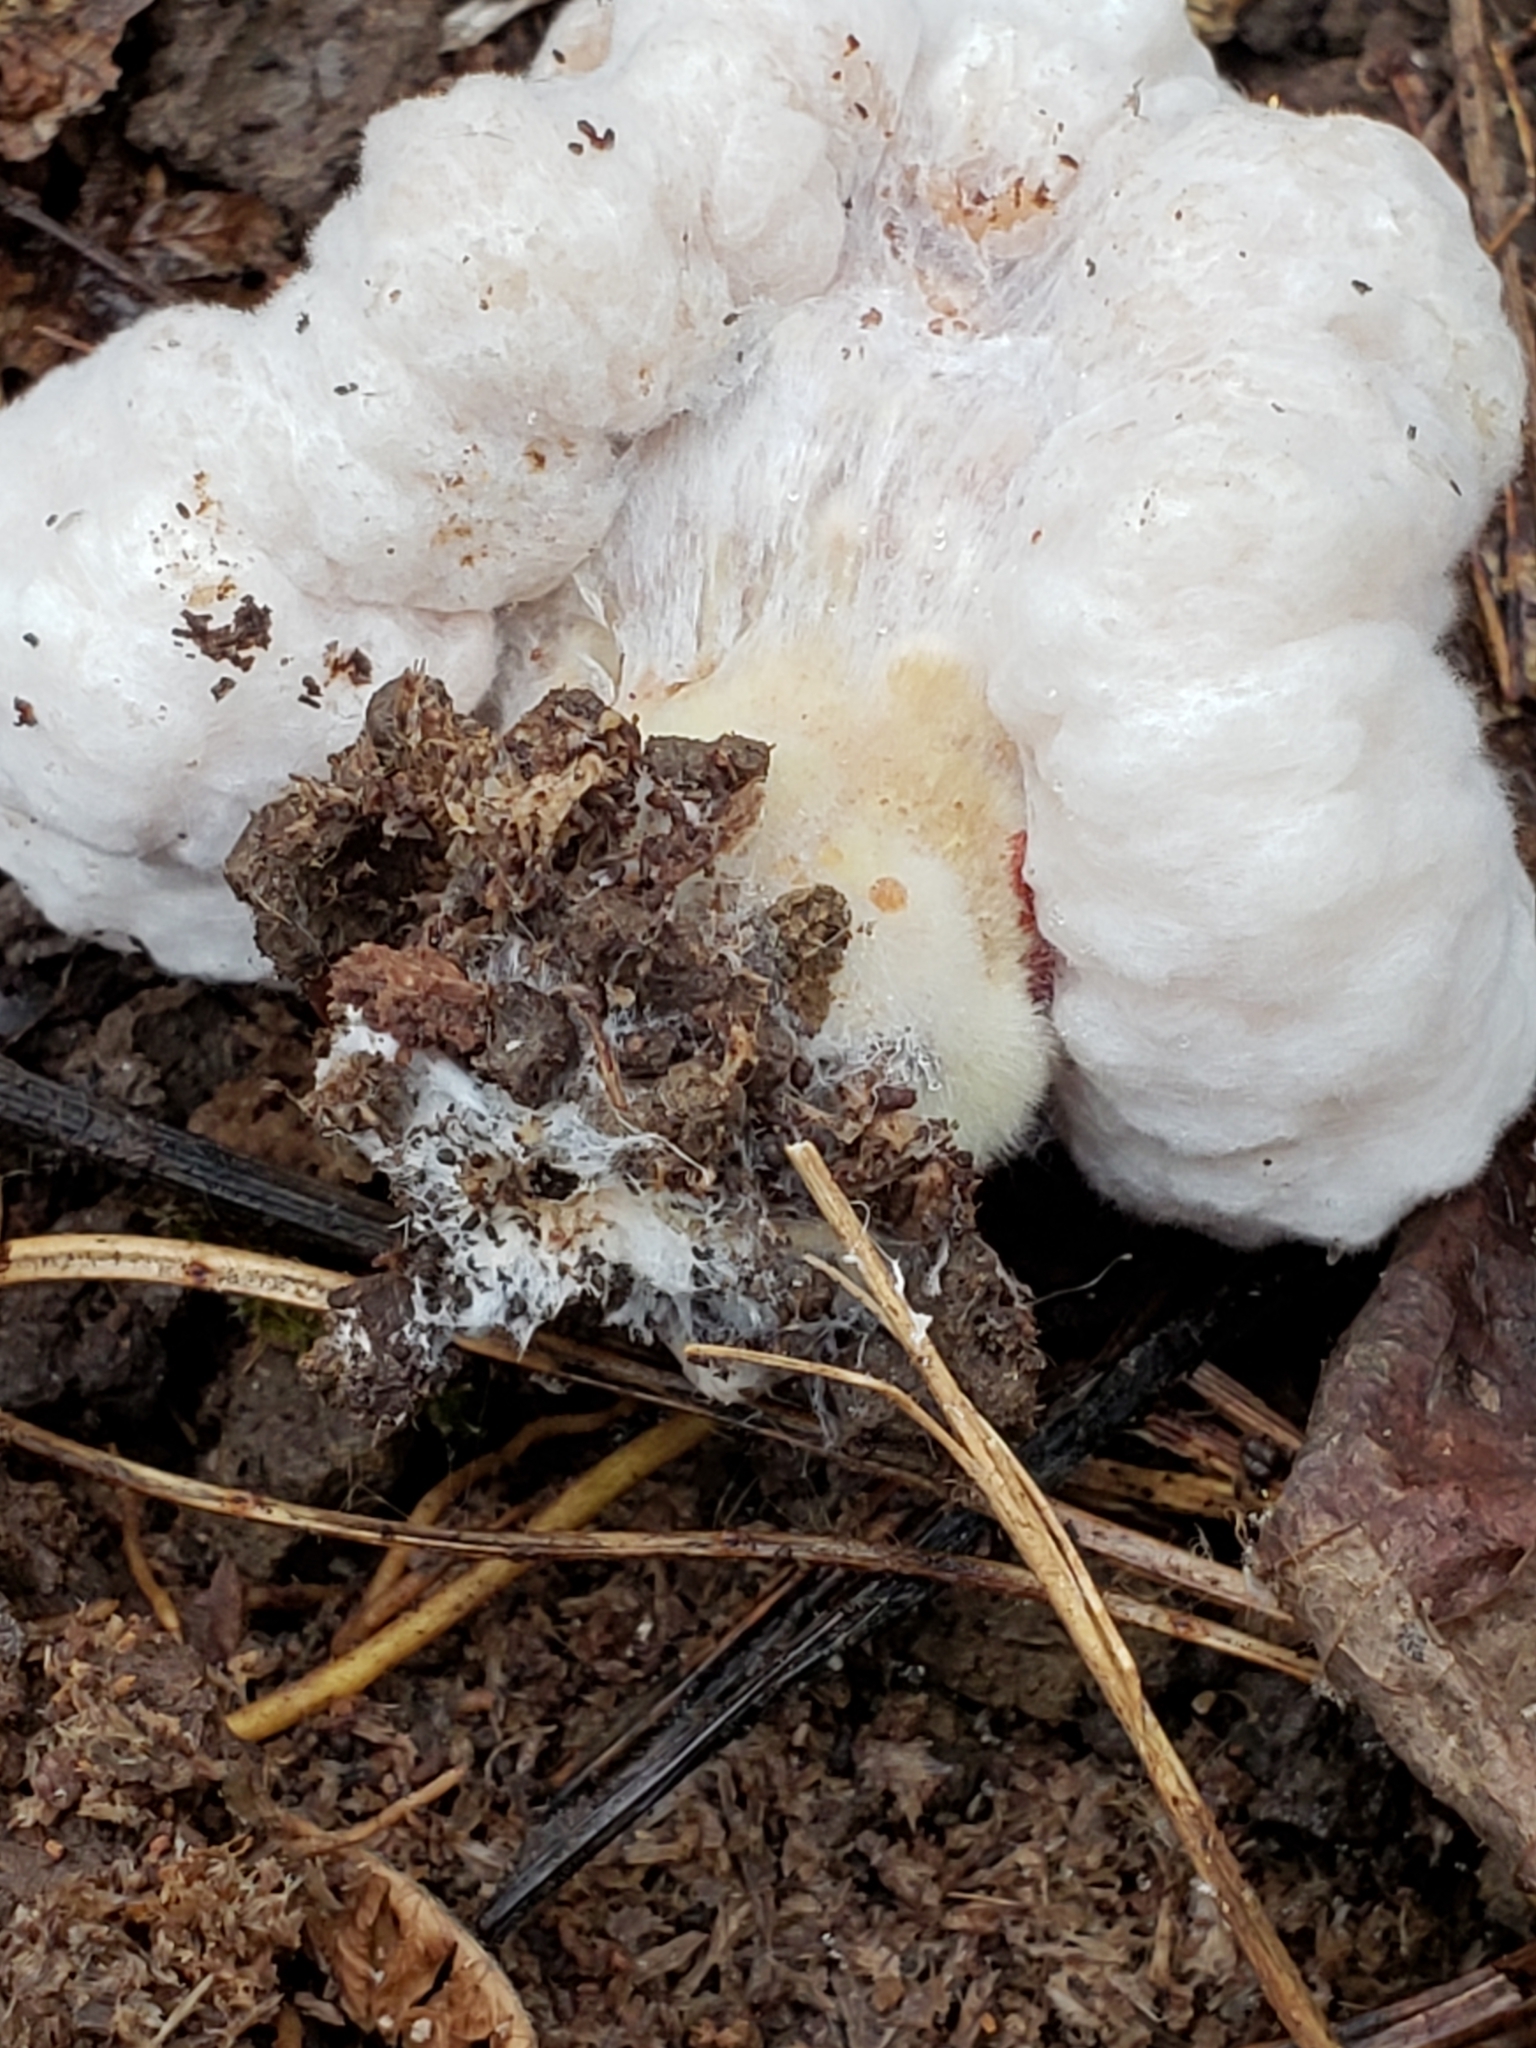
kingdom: Fungi
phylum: Basidiomycota
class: Agaricomycetes
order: Agaricales
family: Entolomataceae
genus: Entoloma
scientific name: Entoloma abortivum
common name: Aborted entoloma
